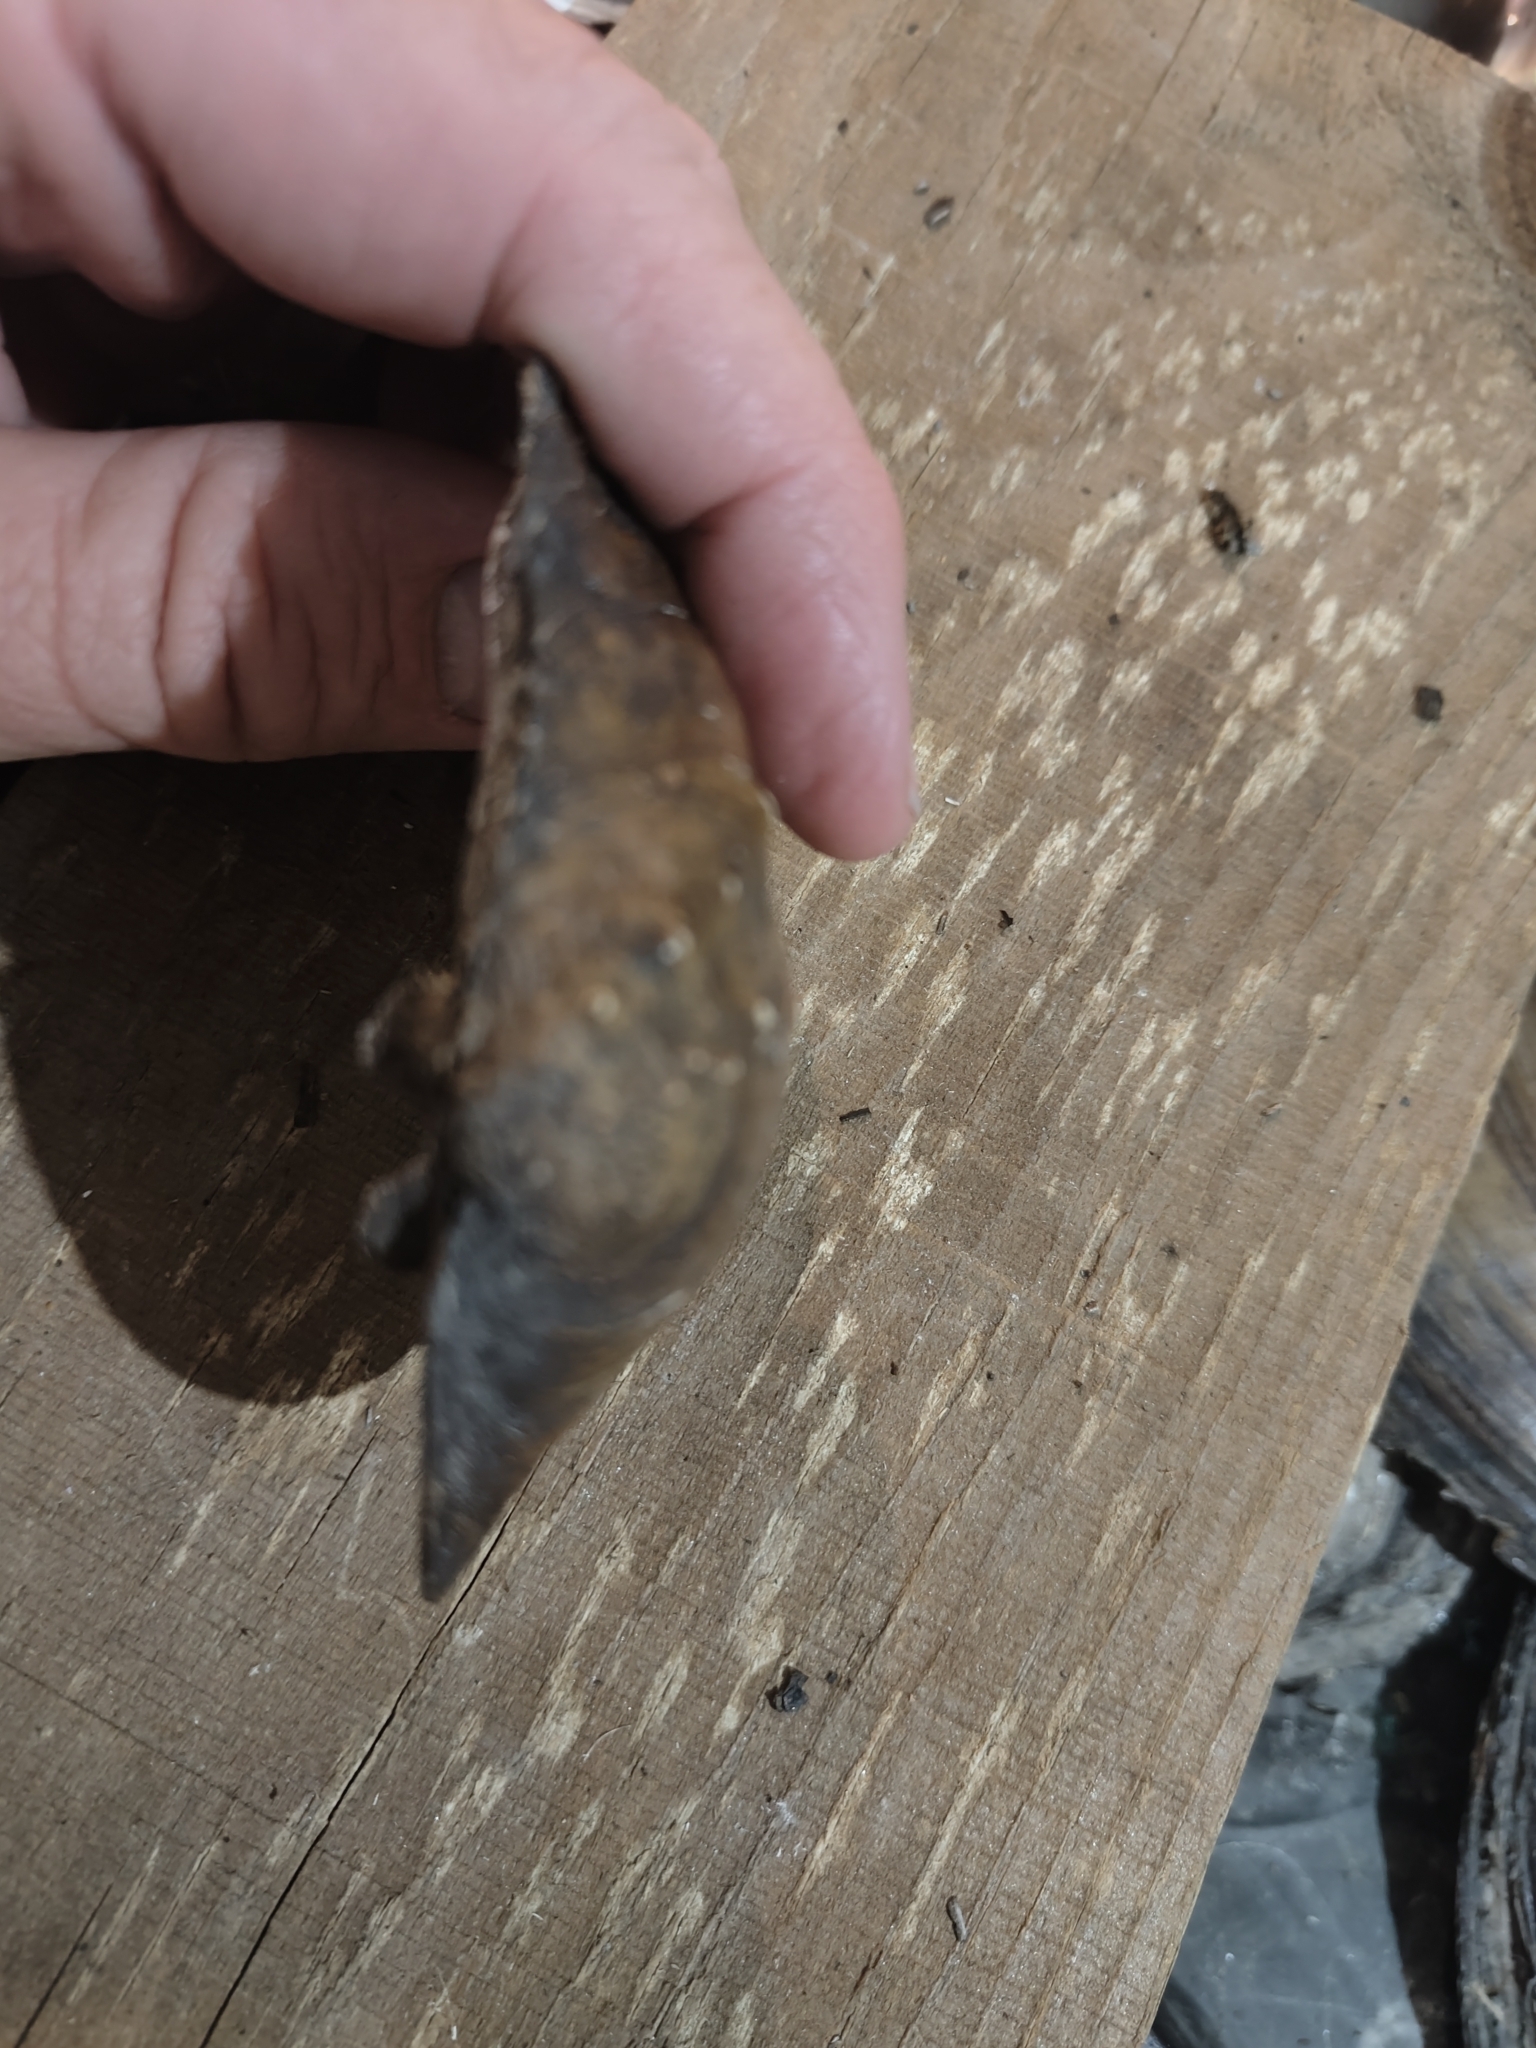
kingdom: Animalia
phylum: Mollusca
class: Bivalvia
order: Unionida
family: Unionidae
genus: Quadrula
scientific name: Quadrula quadrula
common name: Mapleleaf
